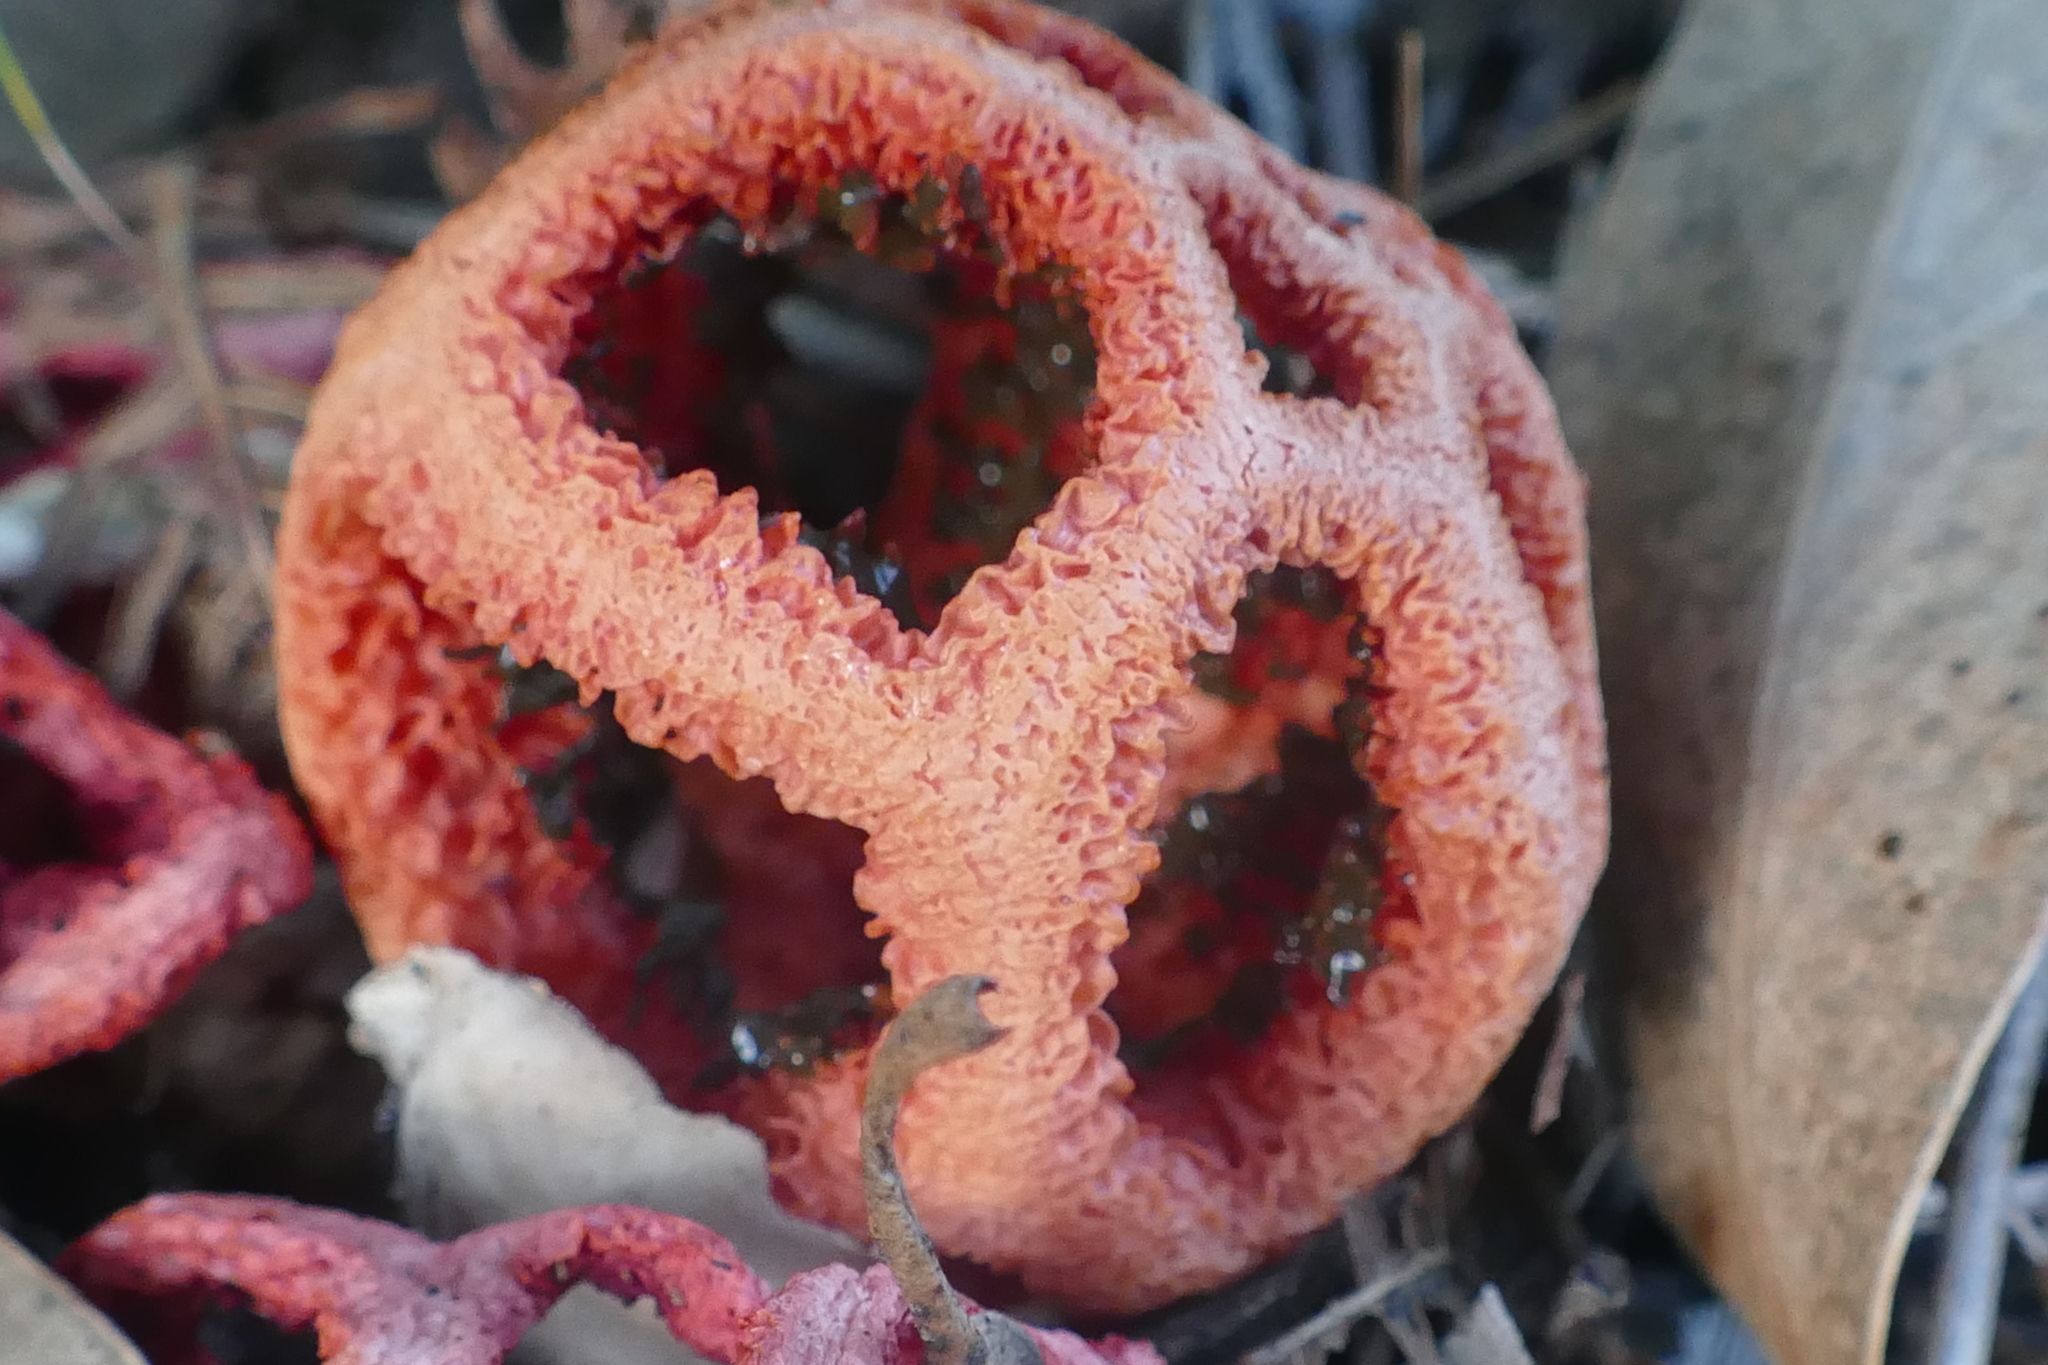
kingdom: Fungi
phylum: Basidiomycota
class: Agaricomycetes
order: Phallales
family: Phallaceae
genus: Clathrus
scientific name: Clathrus ruber
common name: Red cage
